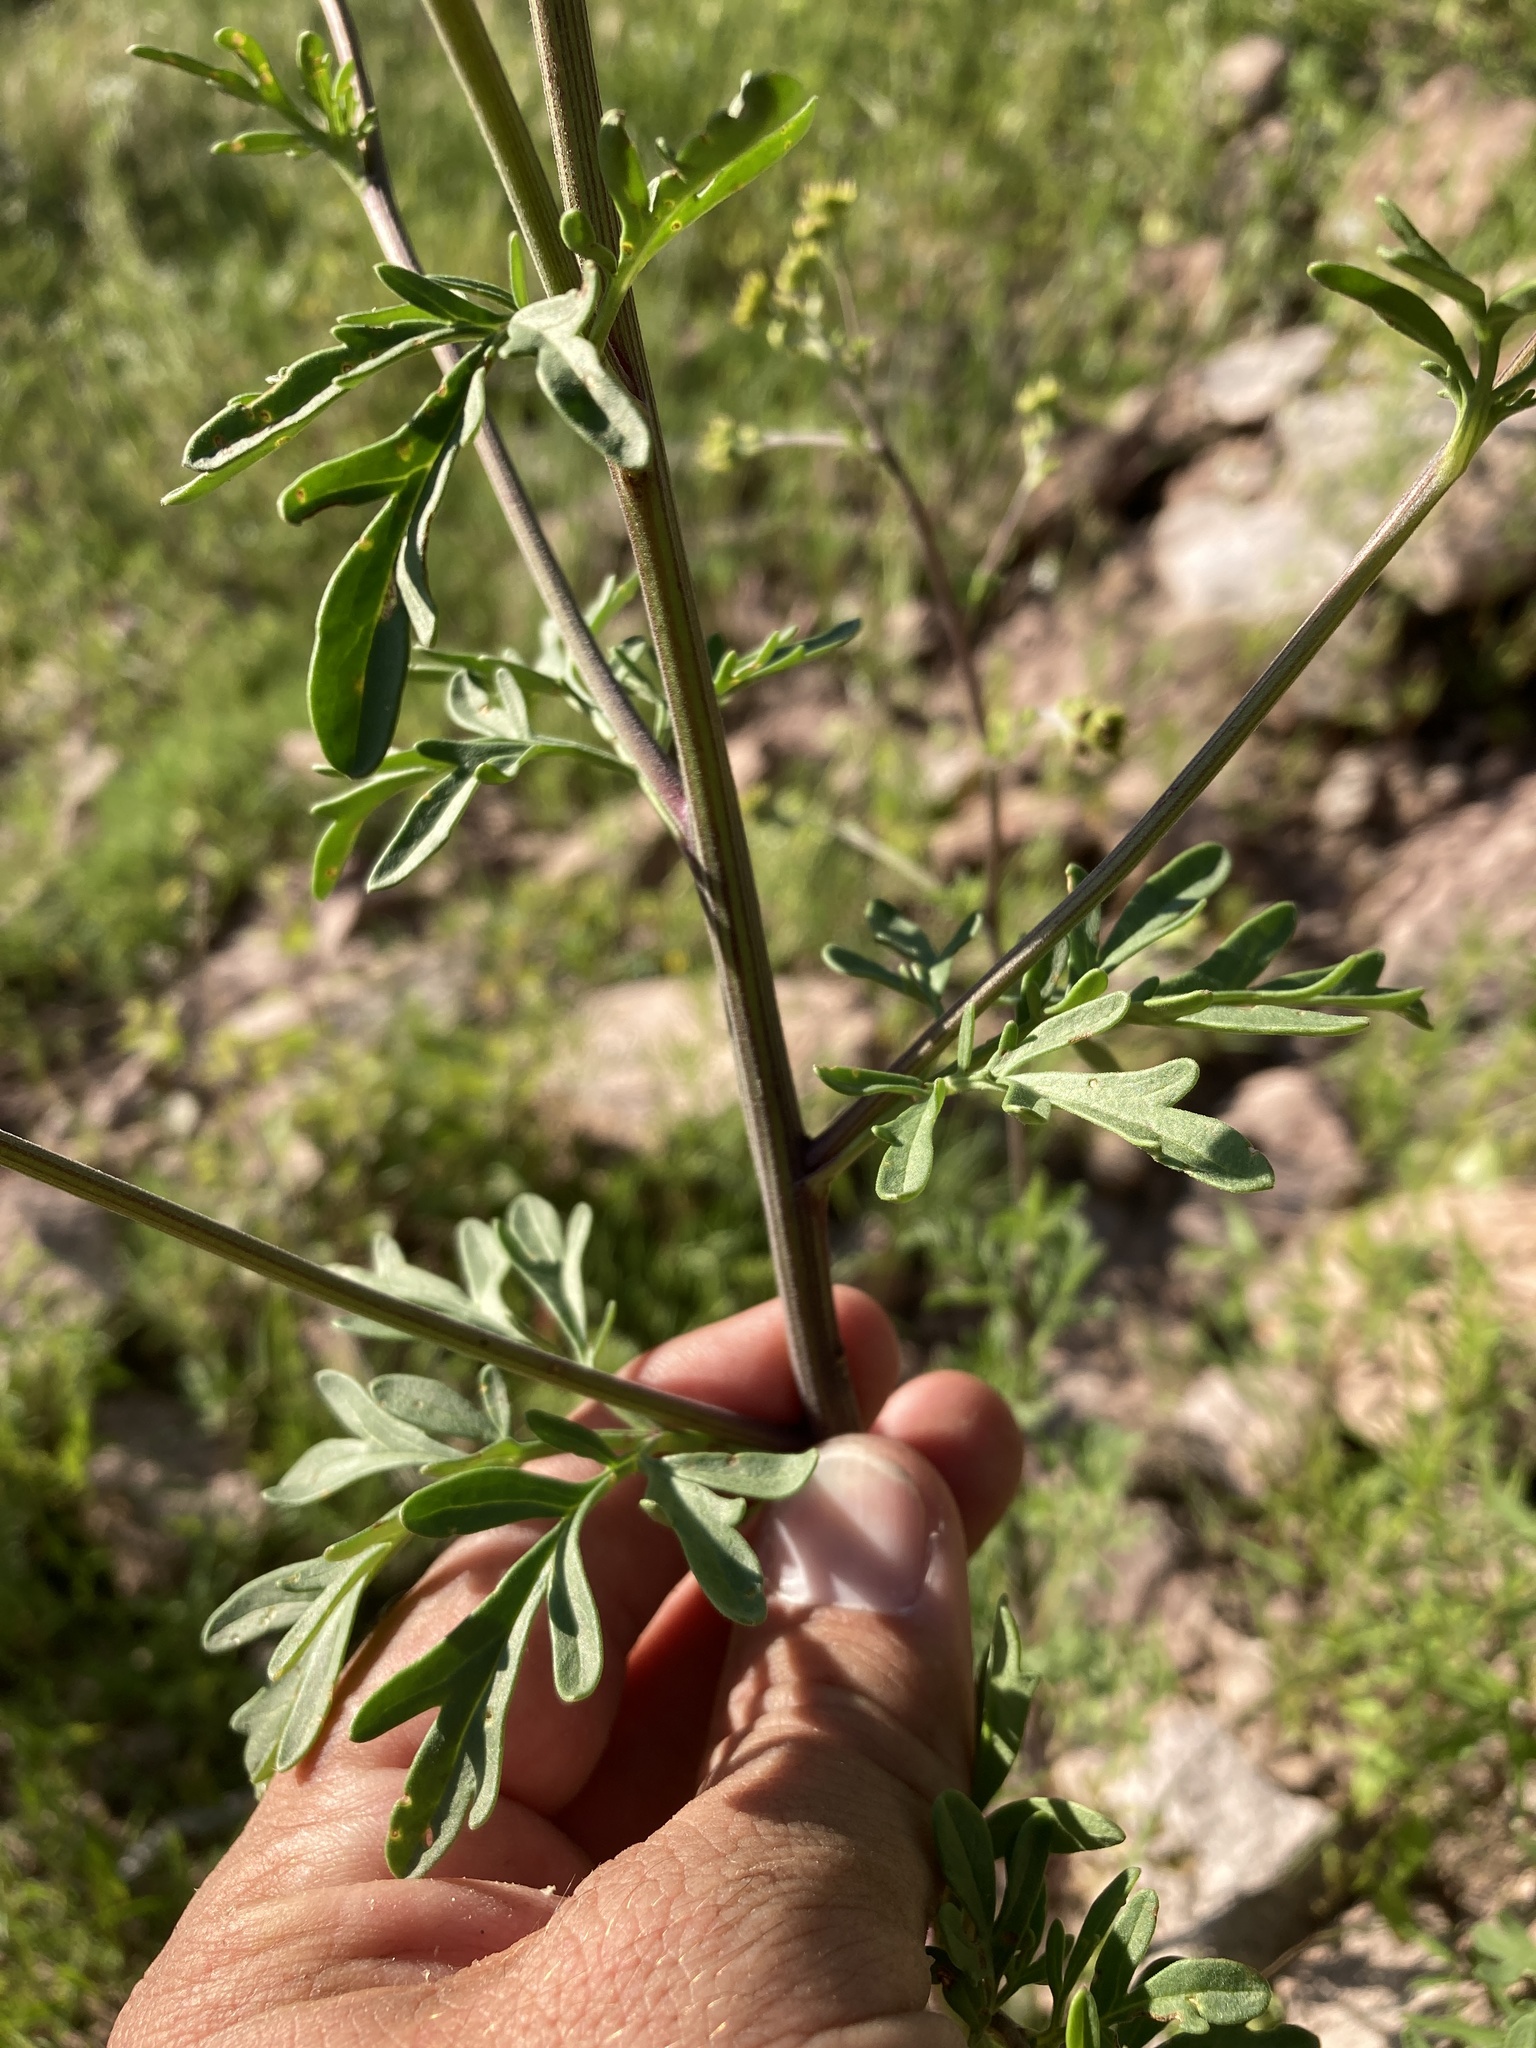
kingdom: Plantae
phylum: Tracheophyta
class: Magnoliopsida
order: Asterales
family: Asteraceae
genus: Hymenothrix
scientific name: Hymenothrix dissecta
